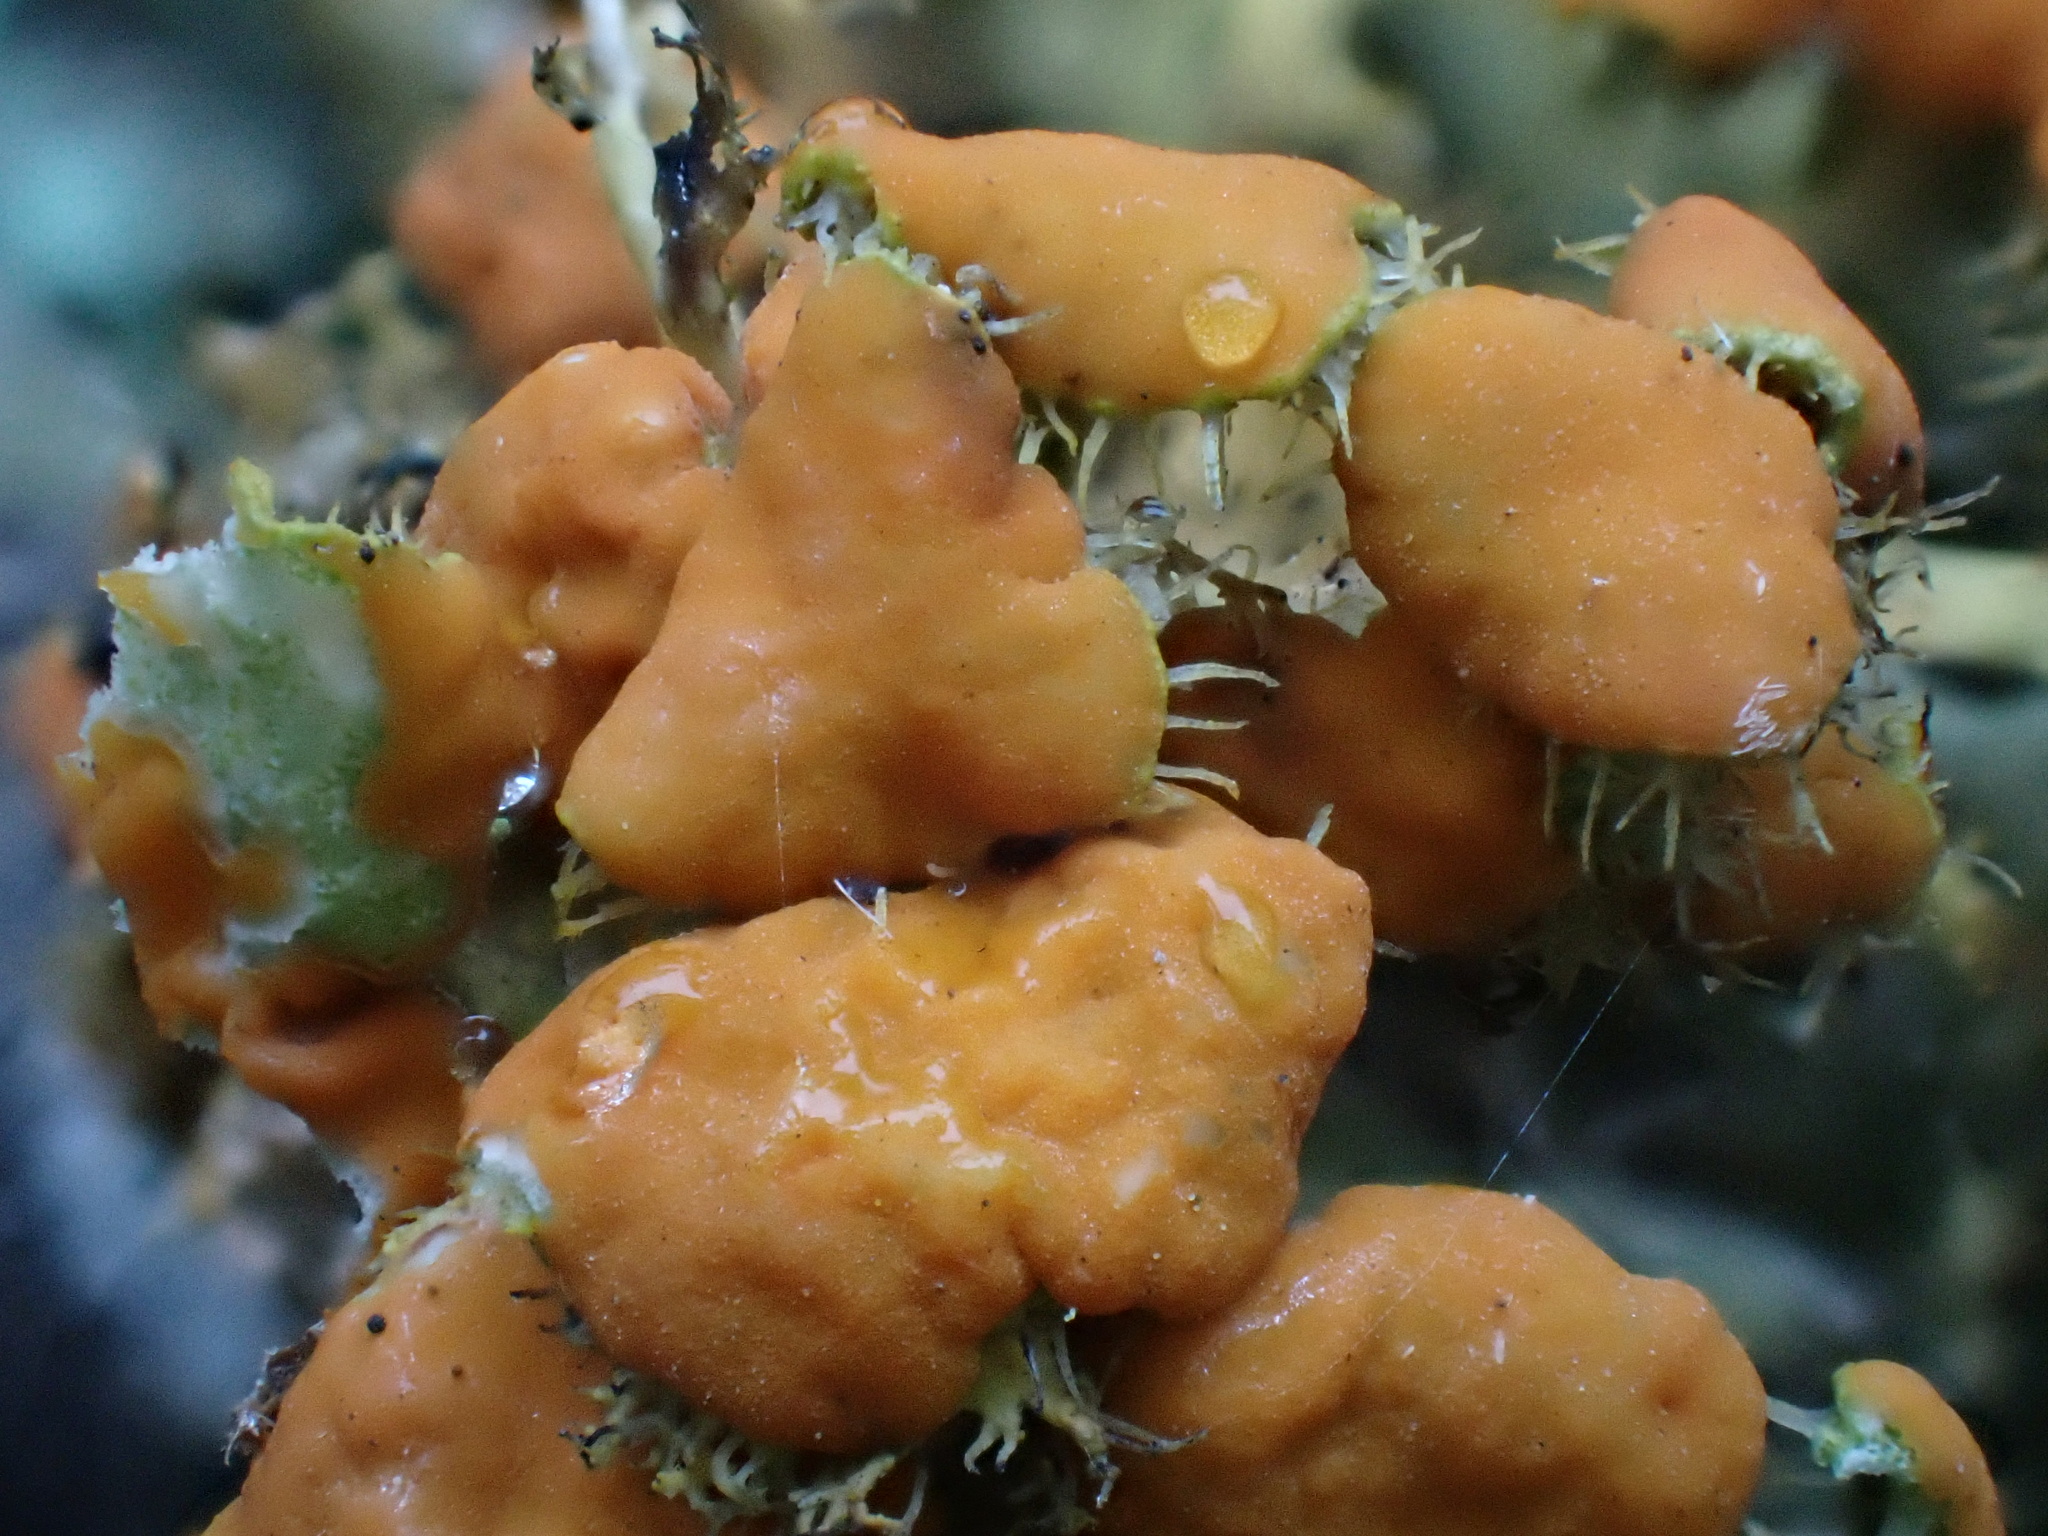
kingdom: Fungi
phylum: Ascomycota
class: Lecanoromycetes
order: Teloschistales
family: Teloschistaceae
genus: Niorma
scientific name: Niorma chrysophthalma
